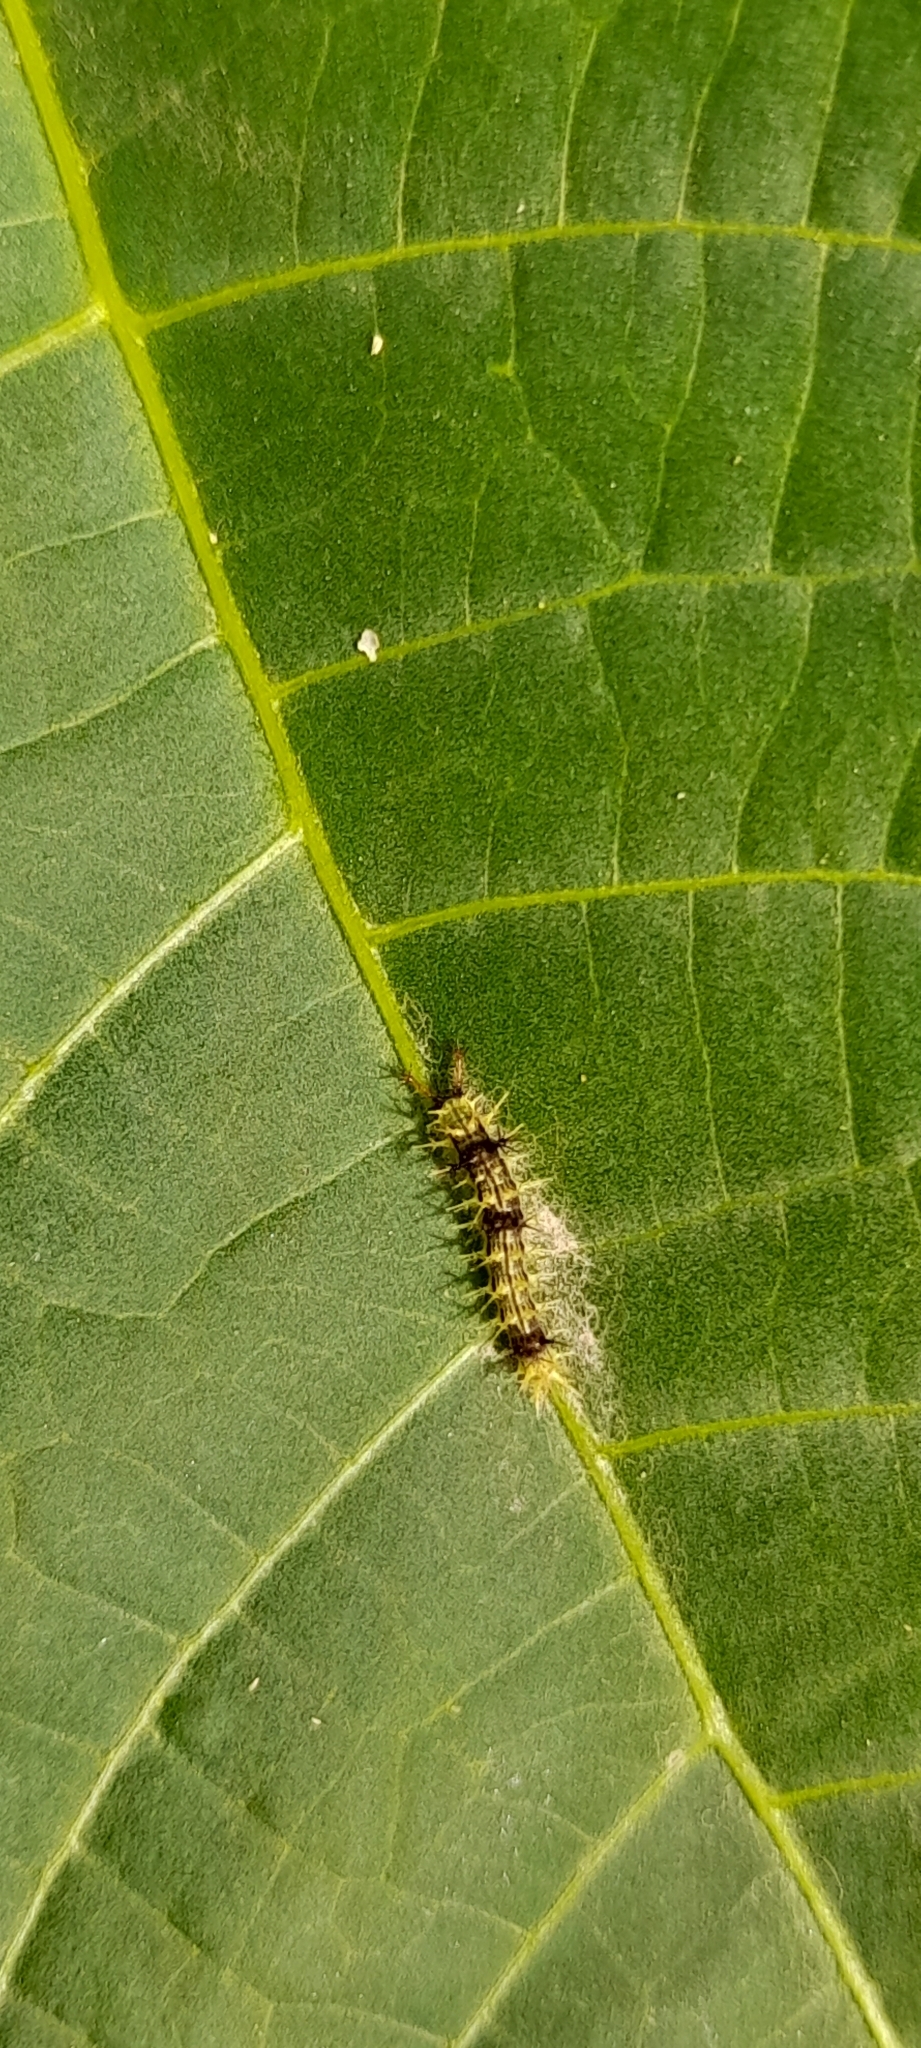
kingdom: Animalia
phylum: Arthropoda
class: Insecta
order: Lepidoptera
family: Nymphalidae
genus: Ariadne
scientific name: Ariadne merione
